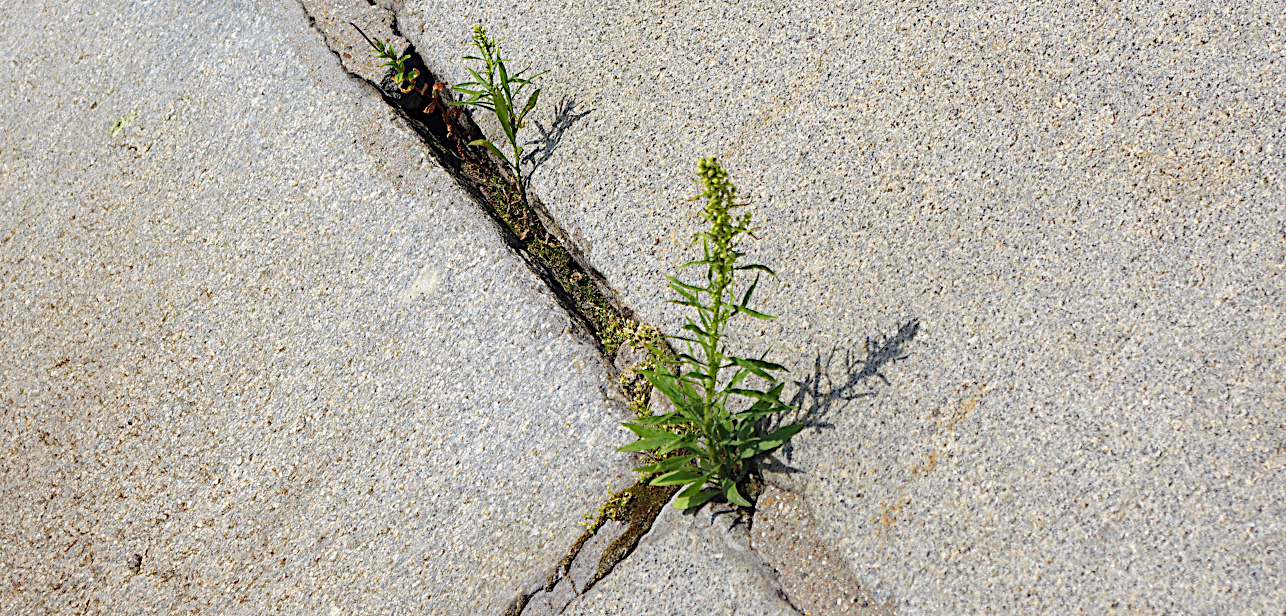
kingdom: Plantae
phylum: Tracheophyta
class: Magnoliopsida
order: Asterales
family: Asteraceae
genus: Erigeron
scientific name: Erigeron canadensis
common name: Canadian fleabane
